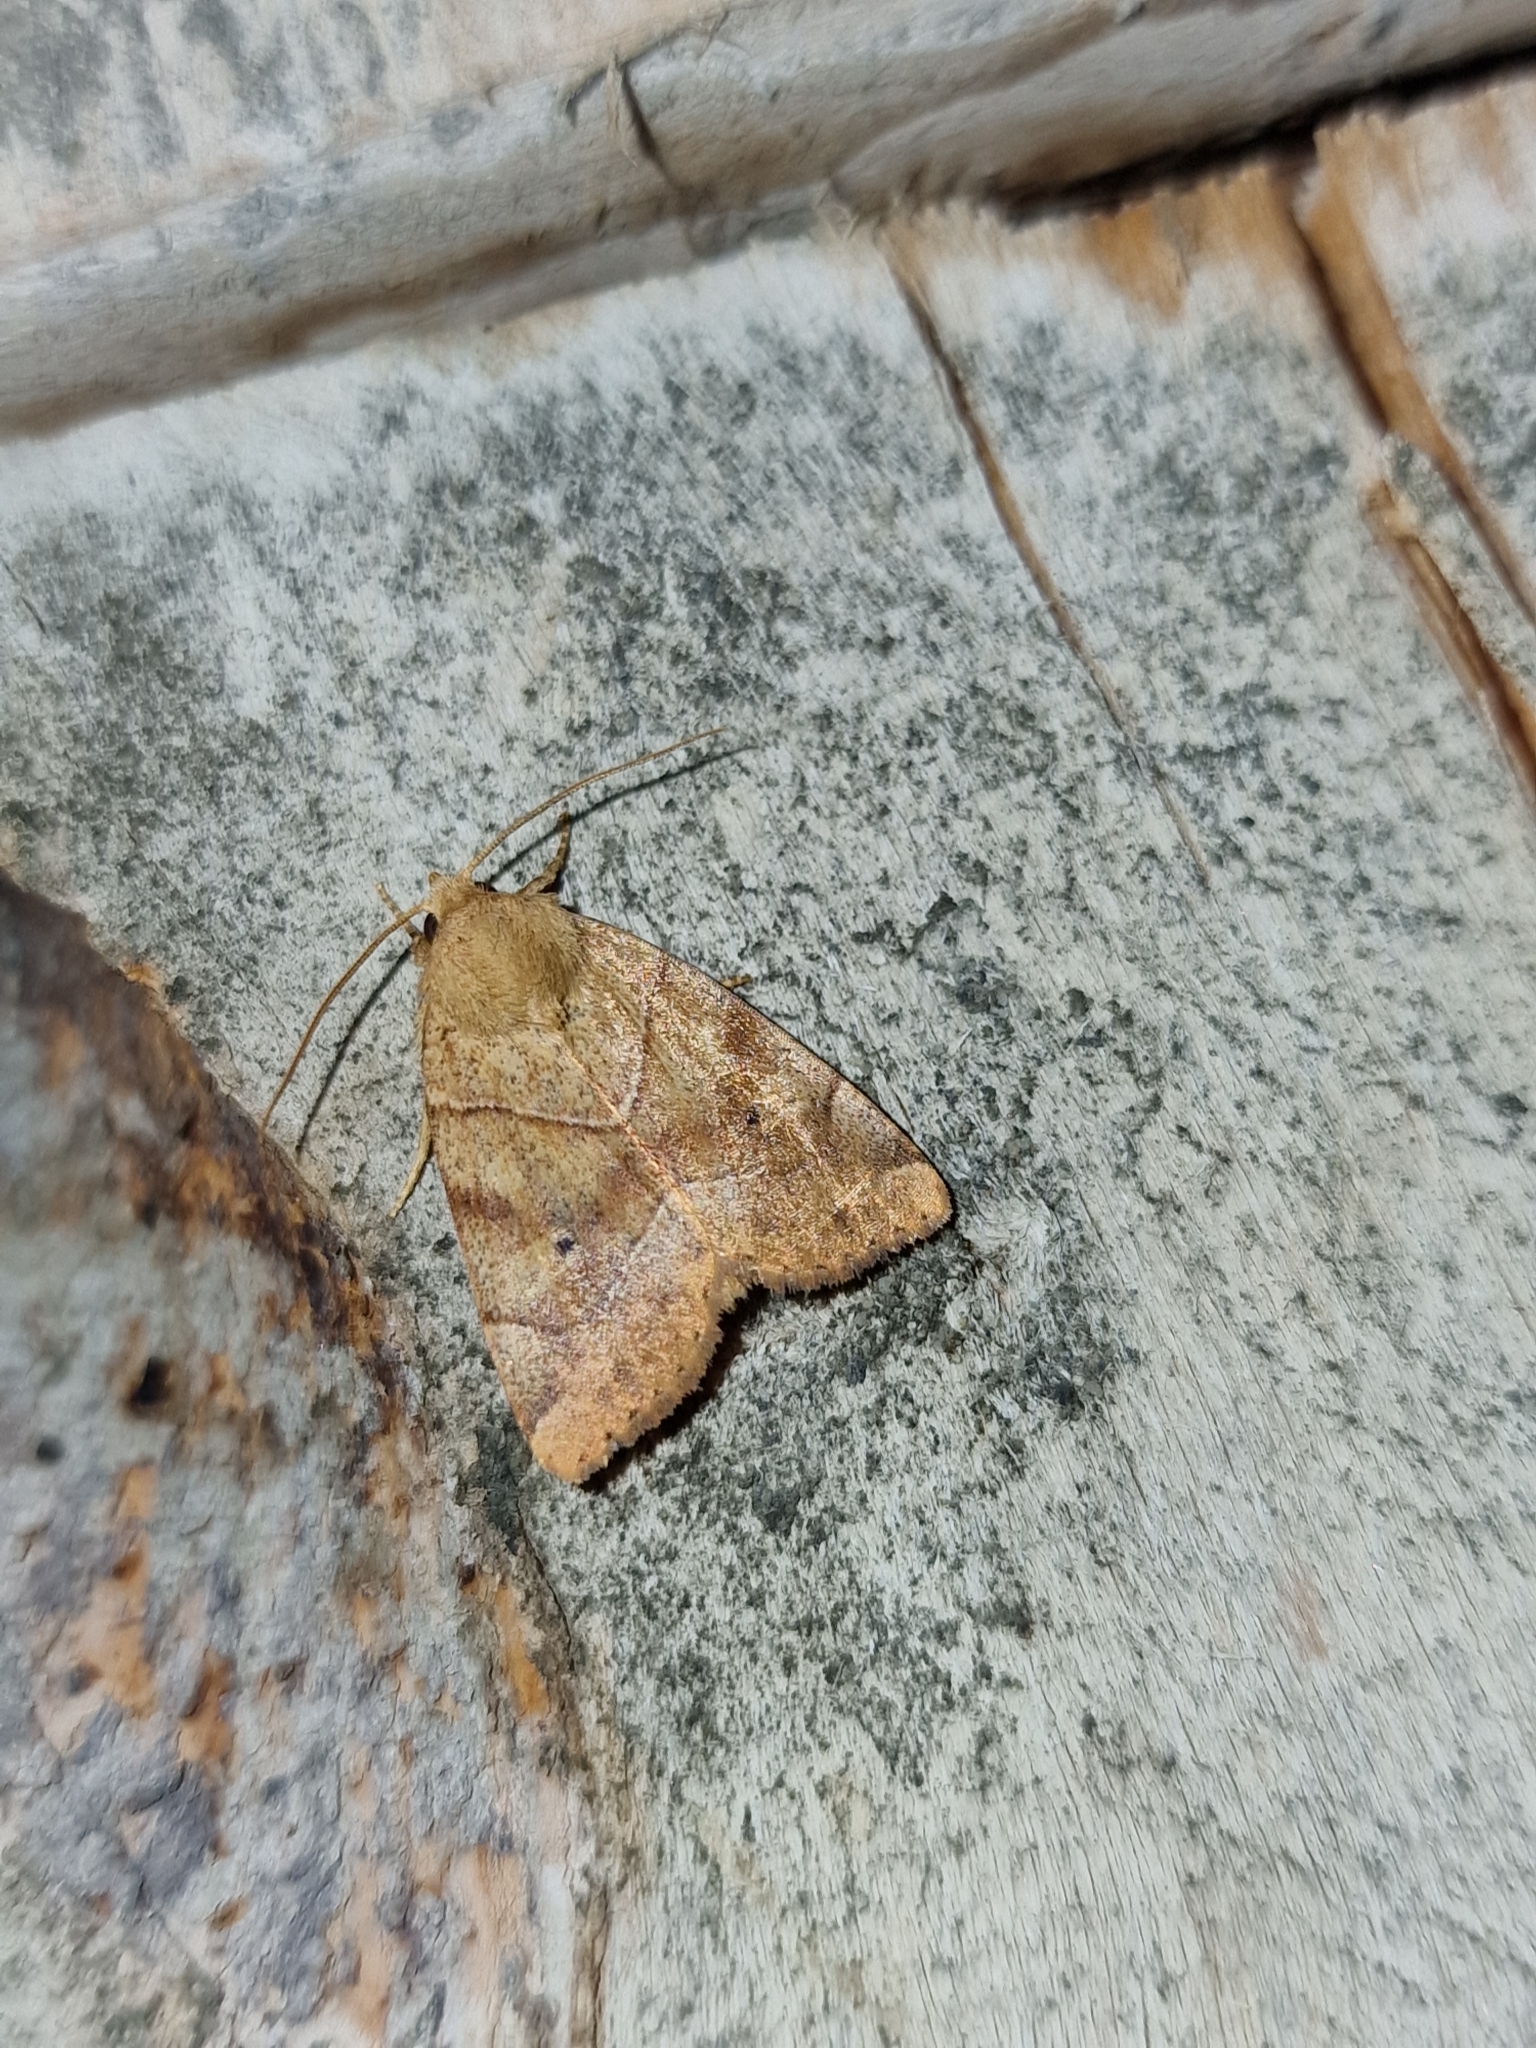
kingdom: Animalia
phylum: Arthropoda
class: Insecta
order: Lepidoptera
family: Noctuidae
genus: Cosmia
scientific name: Cosmia trapezina
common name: Dun-bar
